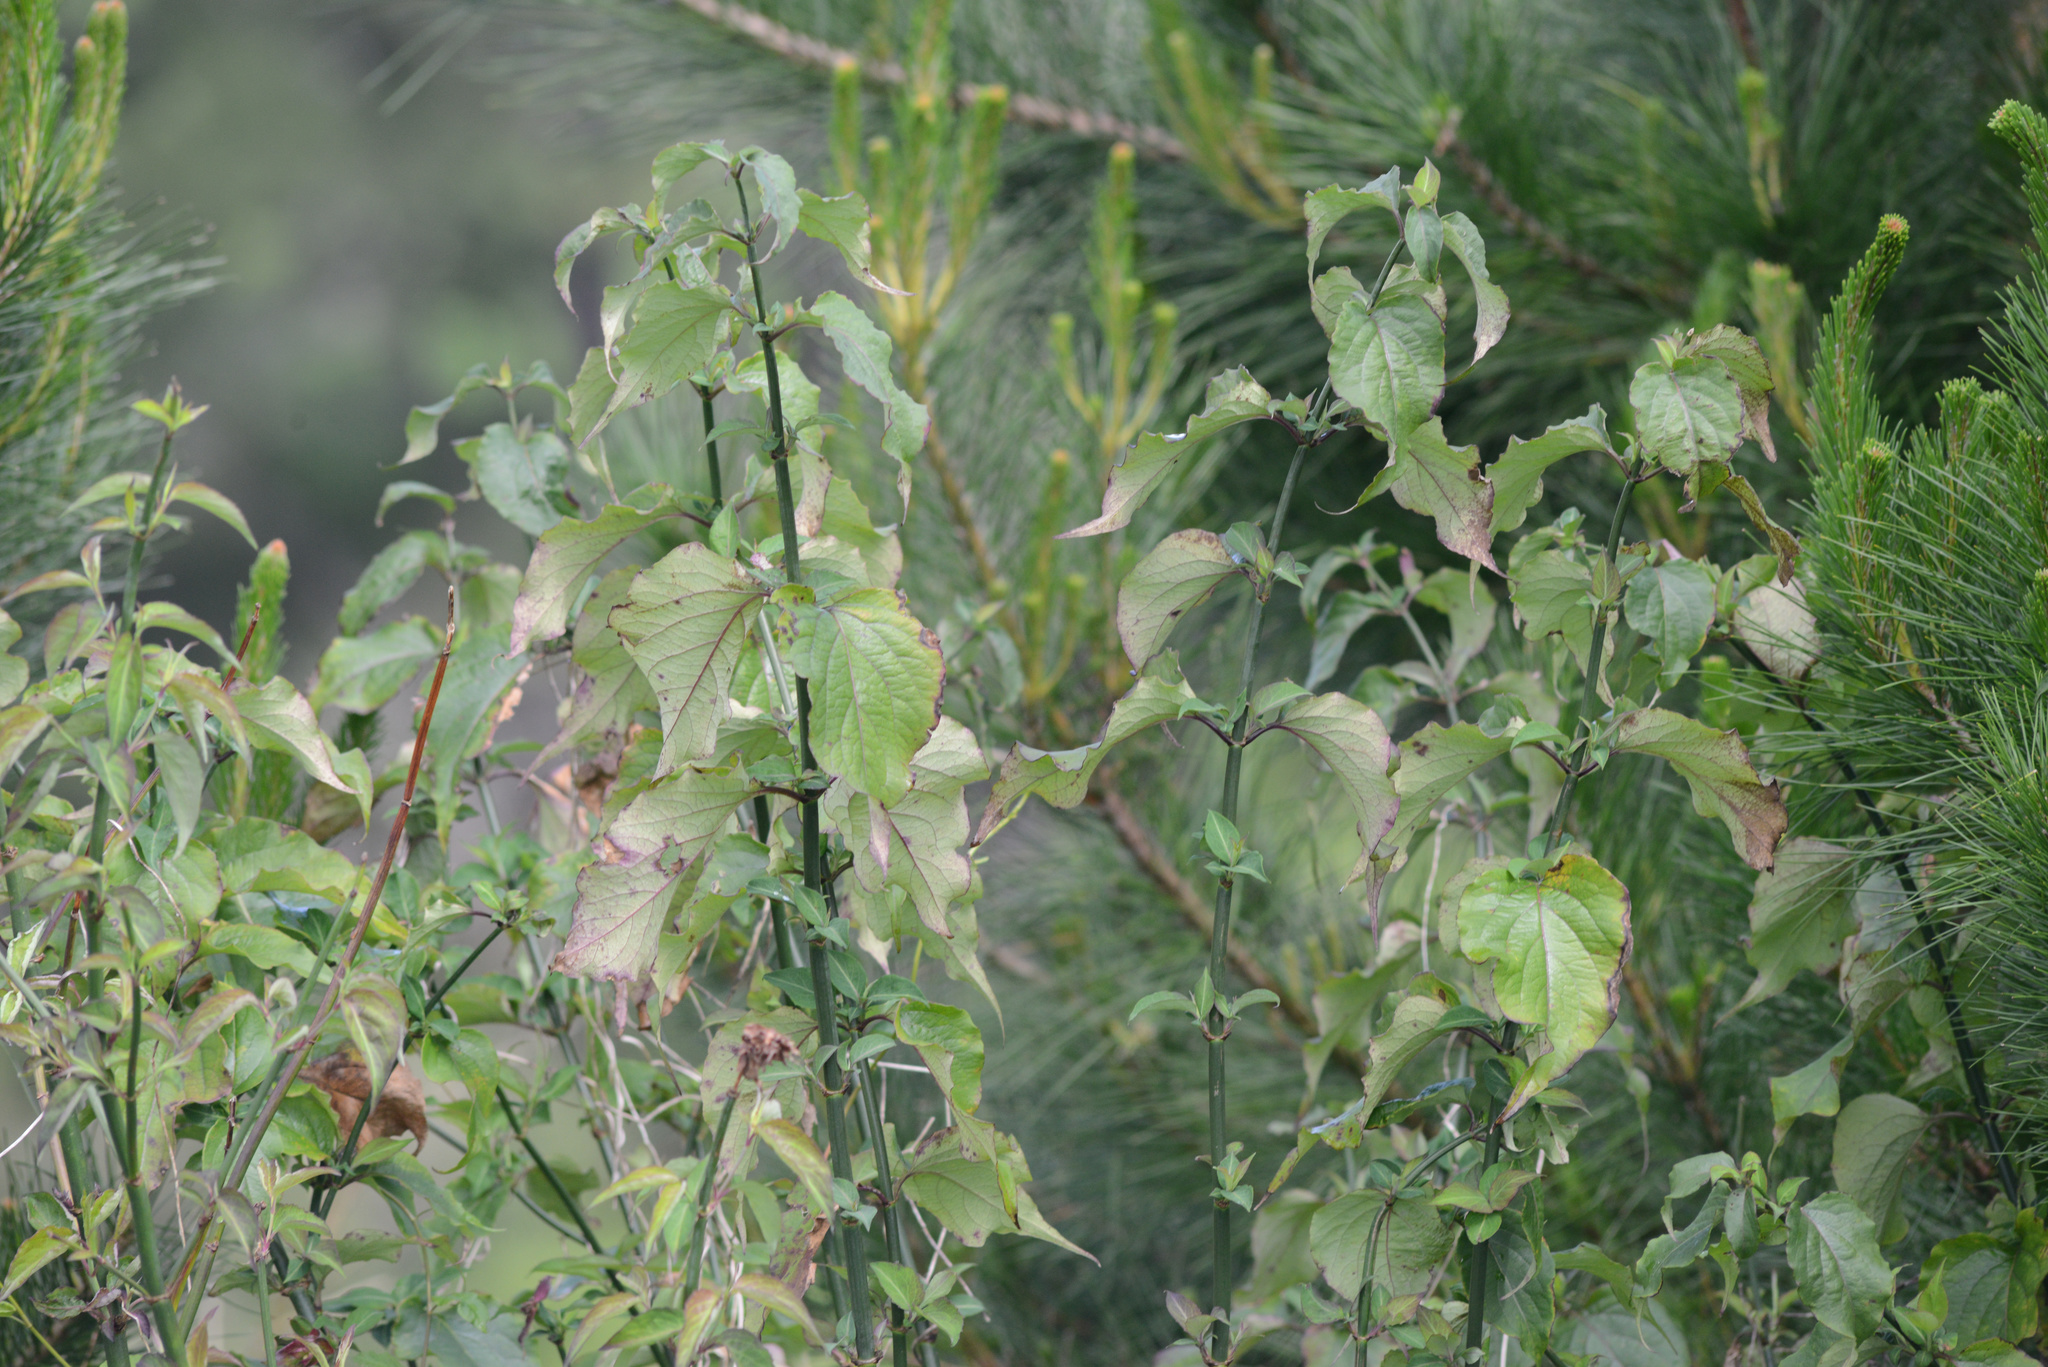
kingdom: Plantae
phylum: Tracheophyta
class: Magnoliopsida
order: Dipsacales
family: Caprifoliaceae
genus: Leycesteria
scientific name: Leycesteria formosa
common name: Himalayan honeysuckle
